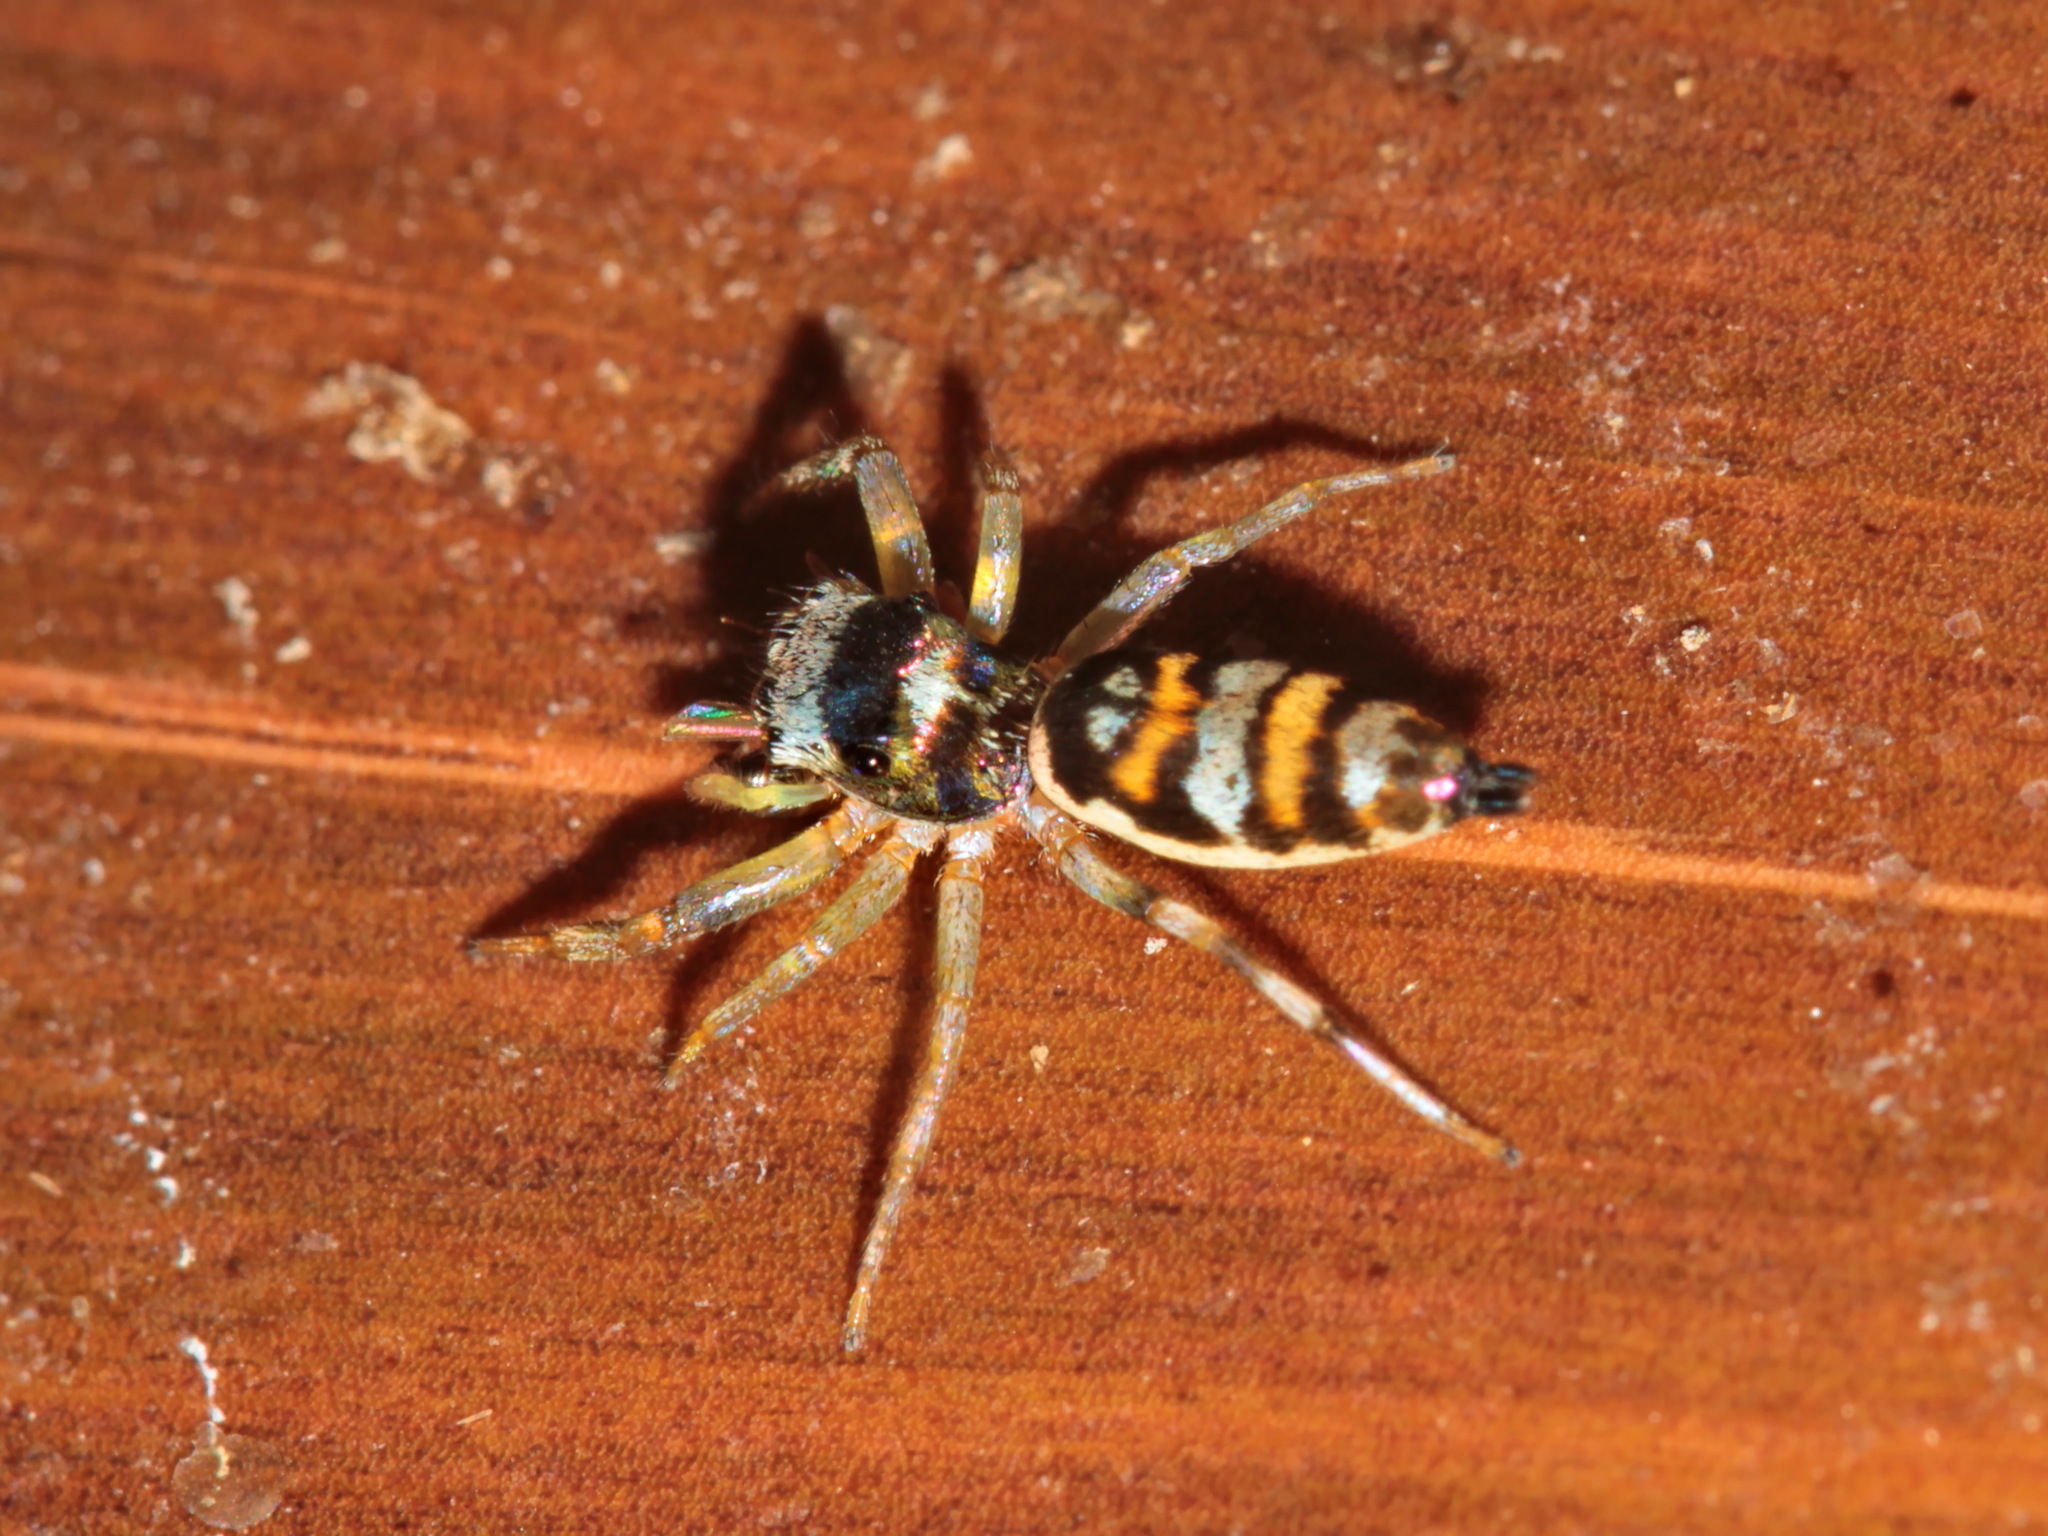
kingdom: Animalia
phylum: Arthropoda
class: Arachnida
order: Araneae
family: Salticidae
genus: Chrysilla
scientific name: Chrysilla acerosa
